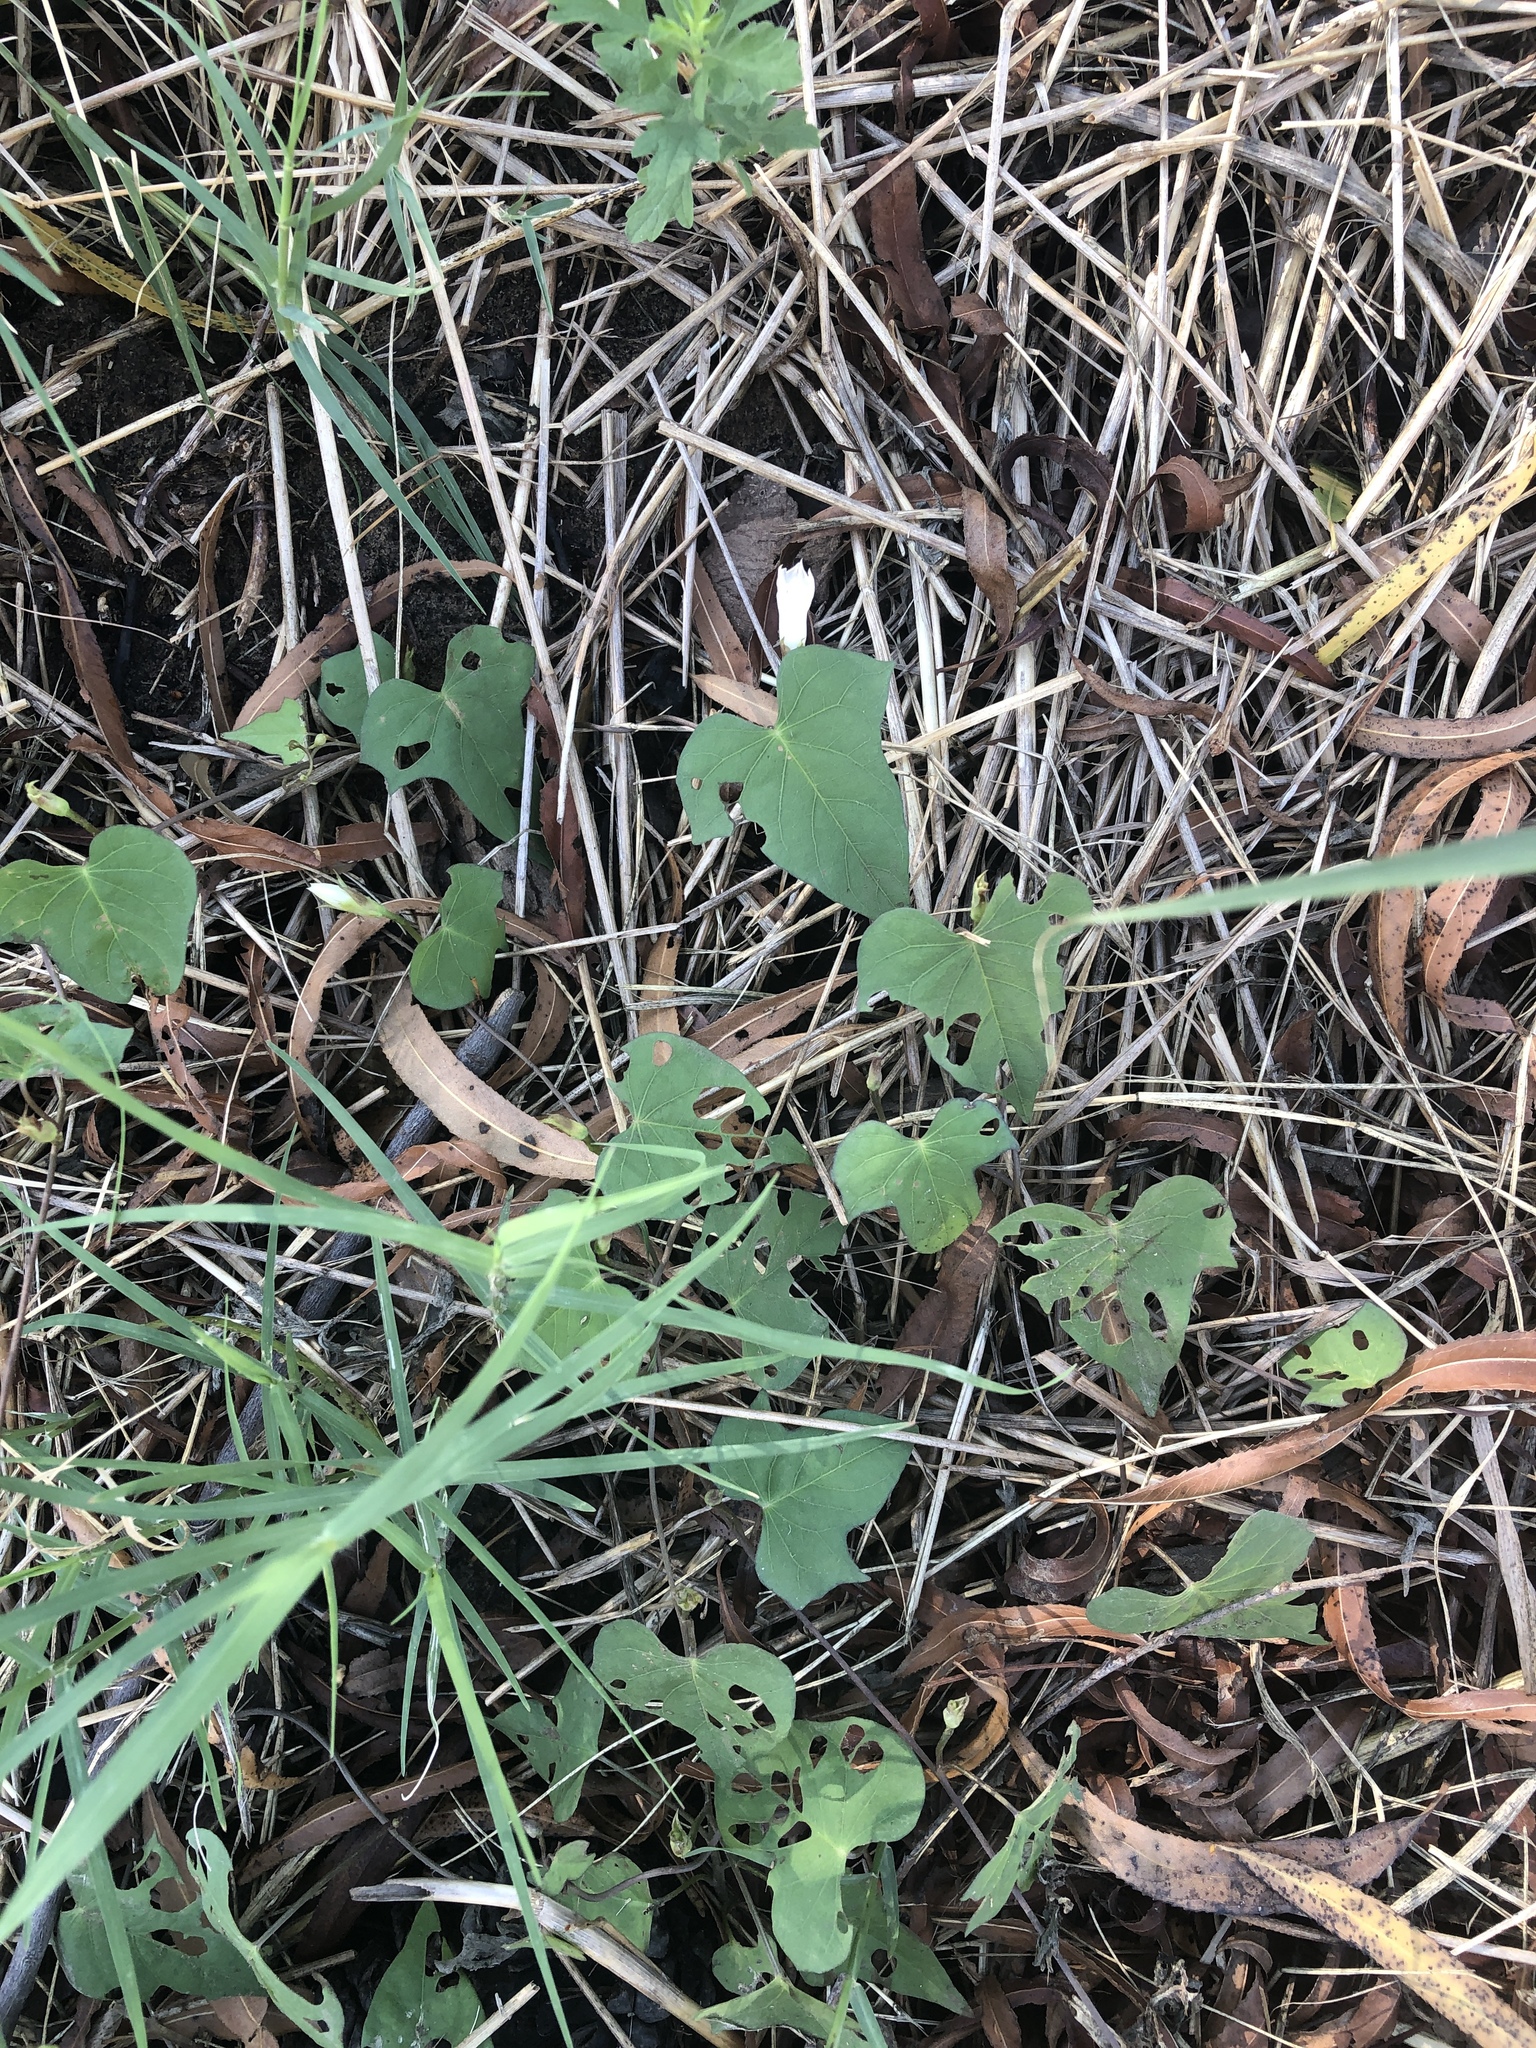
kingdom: Plantae
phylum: Tracheophyta
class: Magnoliopsida
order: Solanales
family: Convolvulaceae
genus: Ipomoea
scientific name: Ipomoea lacunosa
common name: White morning-glory
